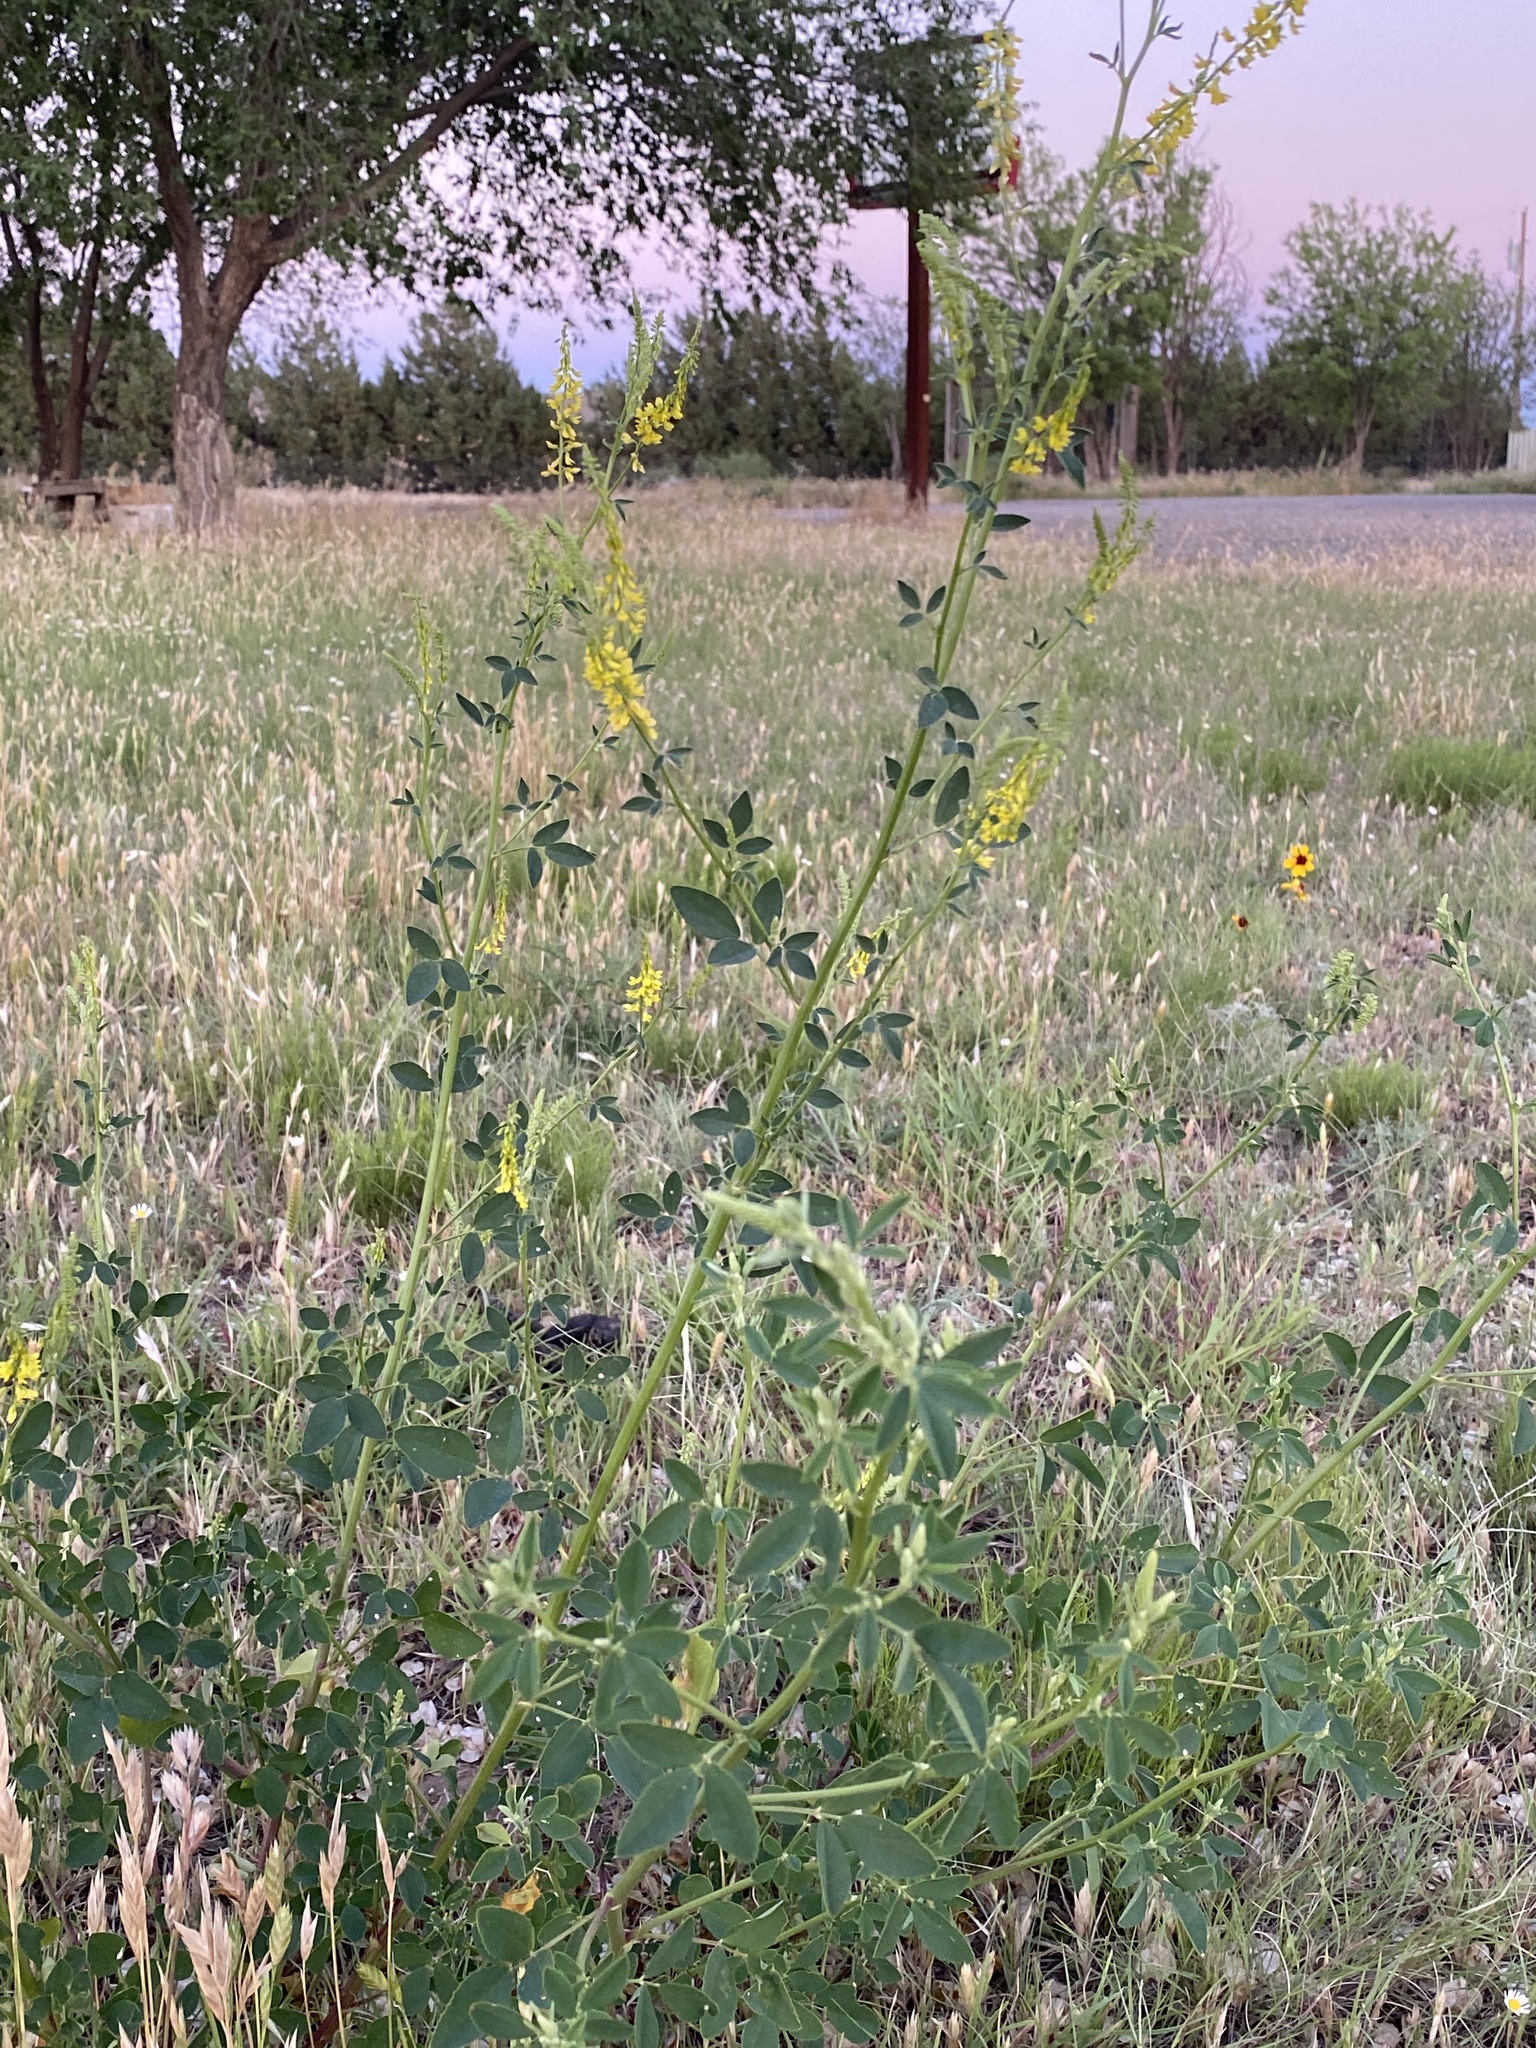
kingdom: Plantae
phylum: Tracheophyta
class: Magnoliopsida
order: Fabales
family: Fabaceae
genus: Melilotus
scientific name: Melilotus officinalis
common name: Sweetclover
